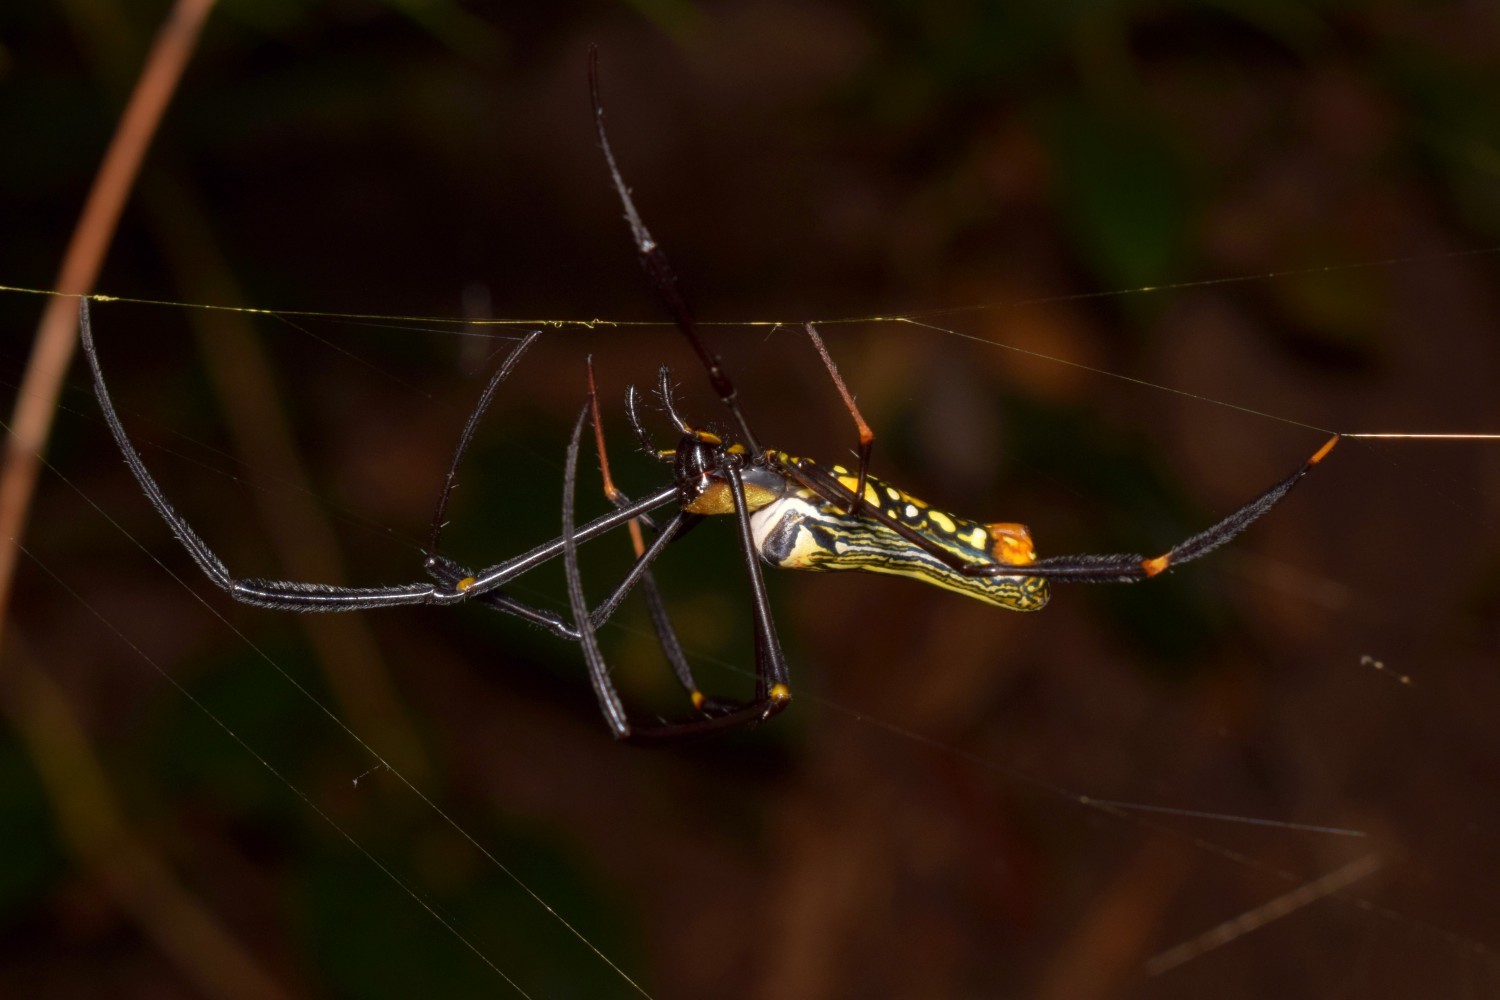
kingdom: Animalia
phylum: Arthropoda
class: Arachnida
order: Araneae
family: Araneidae
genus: Nephila
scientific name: Nephila pilipes
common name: Giant golden orb weaver
